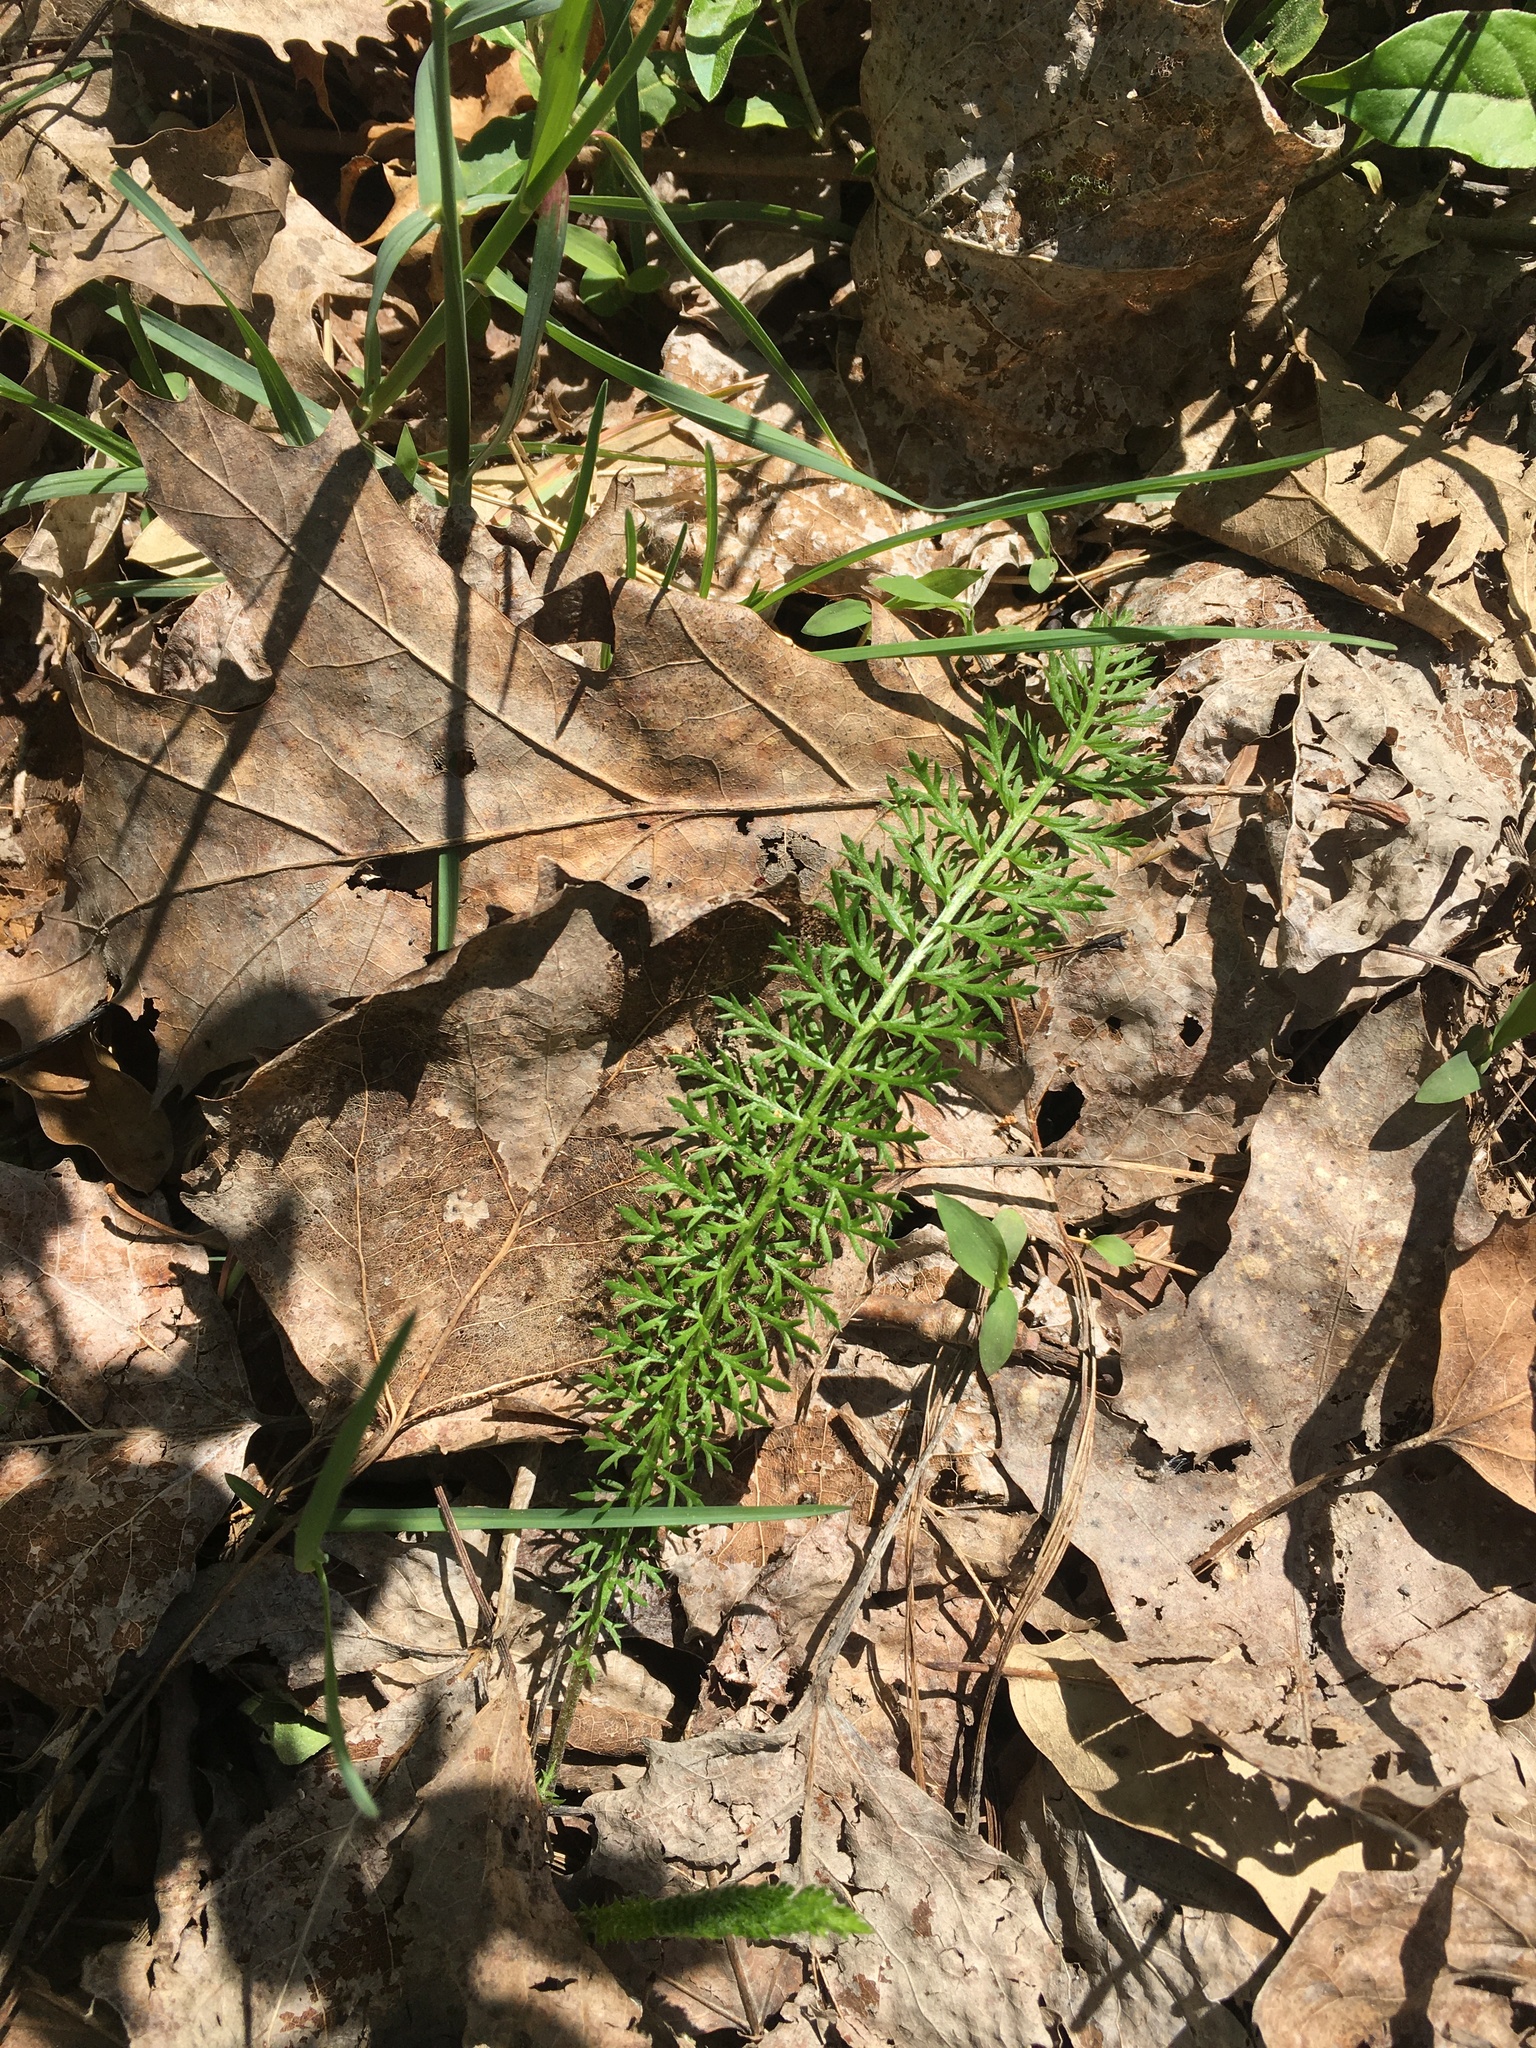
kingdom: Plantae
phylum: Tracheophyta
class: Magnoliopsida
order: Asterales
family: Asteraceae
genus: Achillea
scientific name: Achillea millefolium
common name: Yarrow
